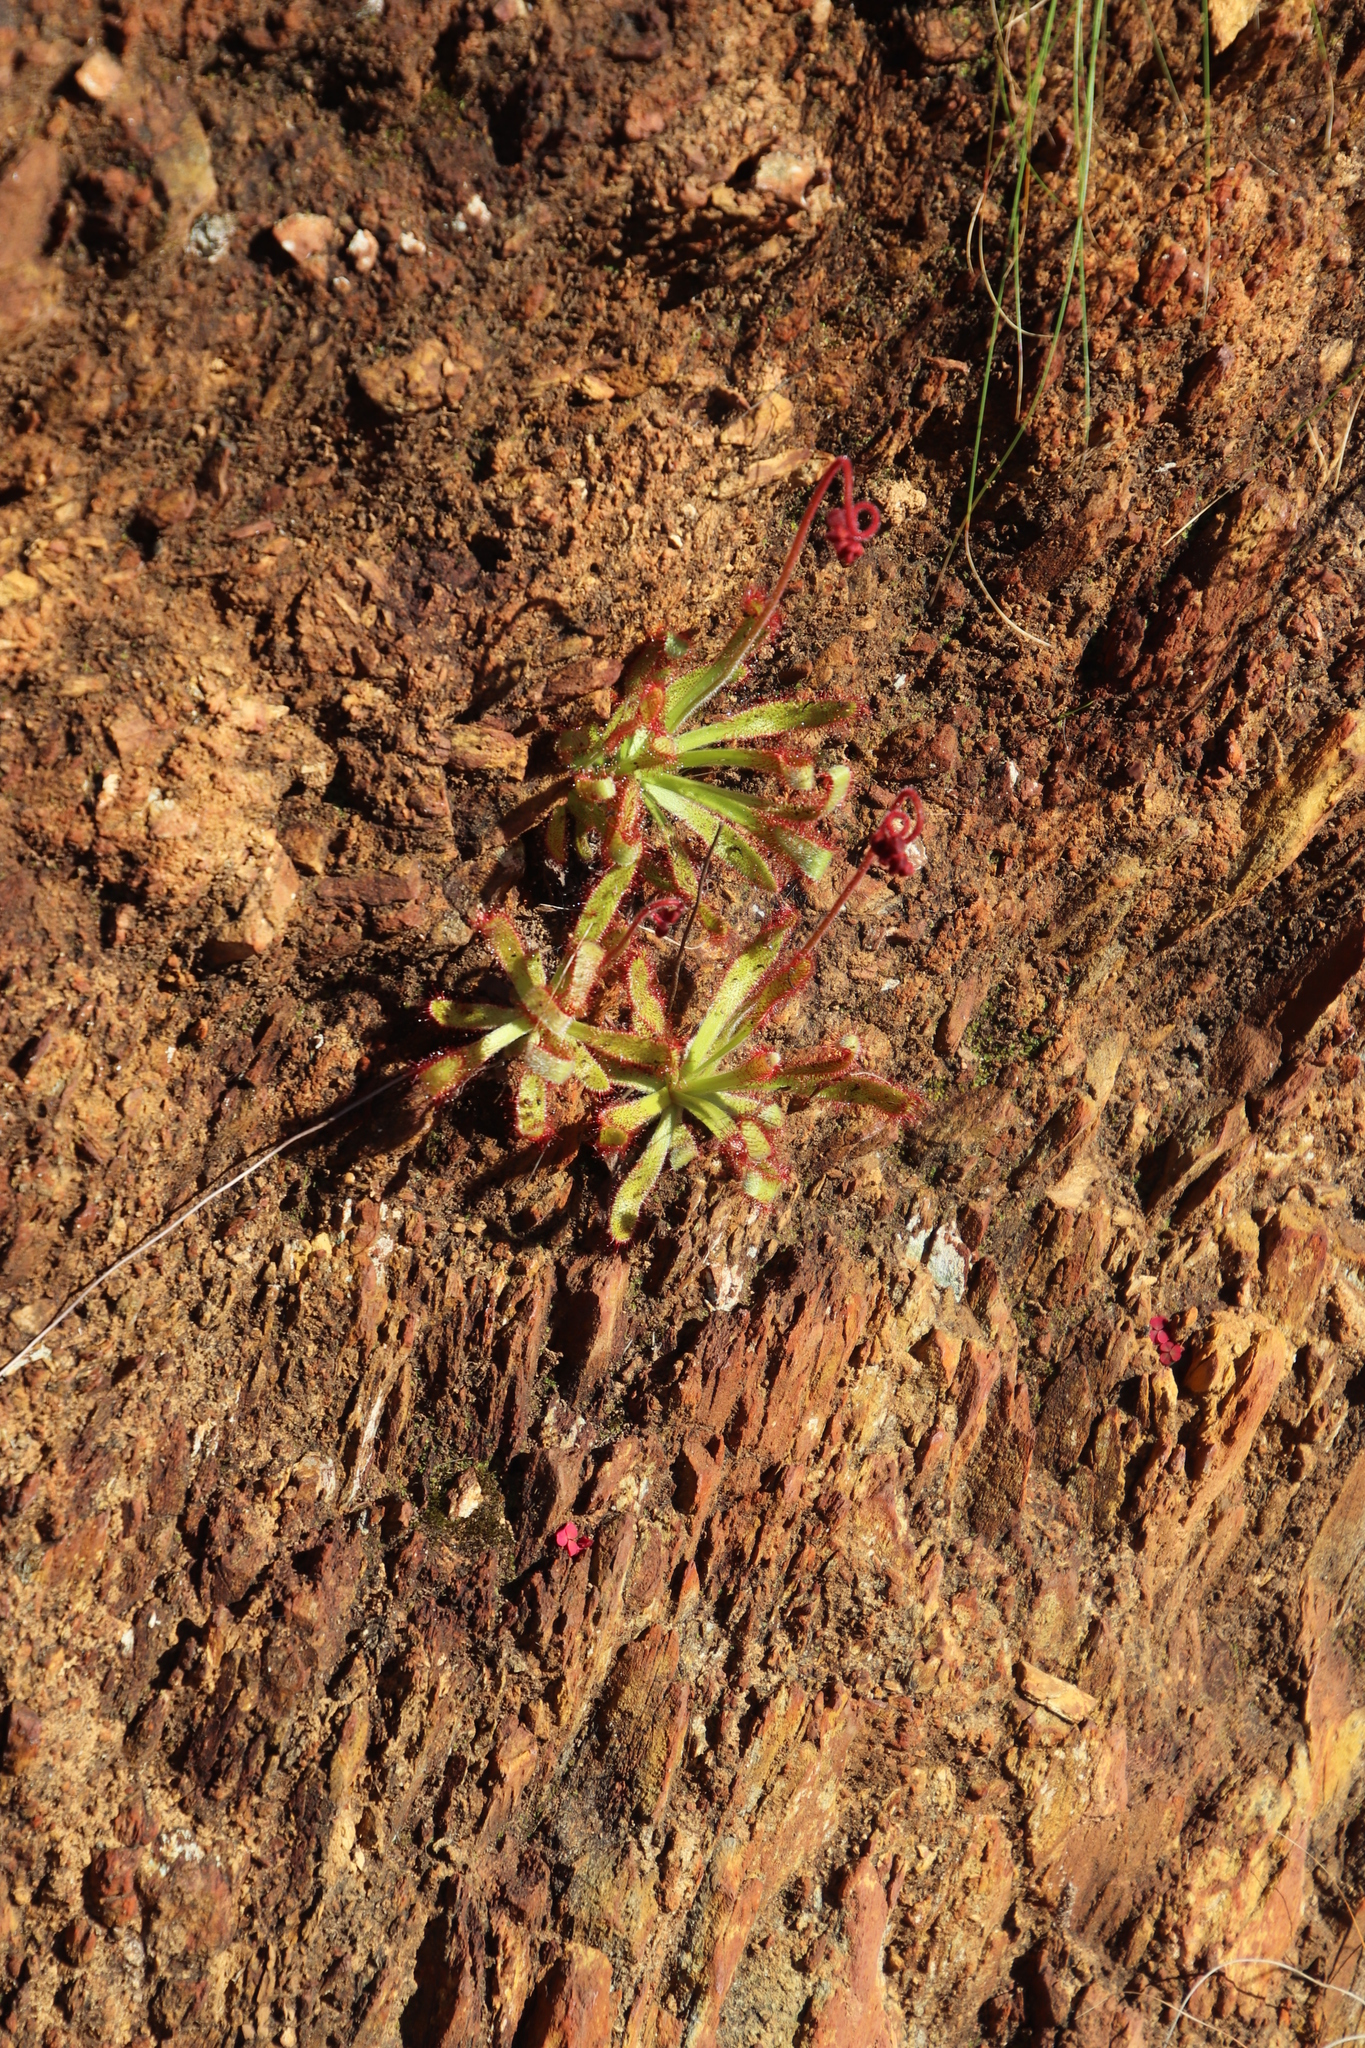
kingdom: Plantae
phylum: Tracheophyta
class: Magnoliopsida
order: Caryophyllales
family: Droseraceae
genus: Drosera
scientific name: Drosera hilaris
